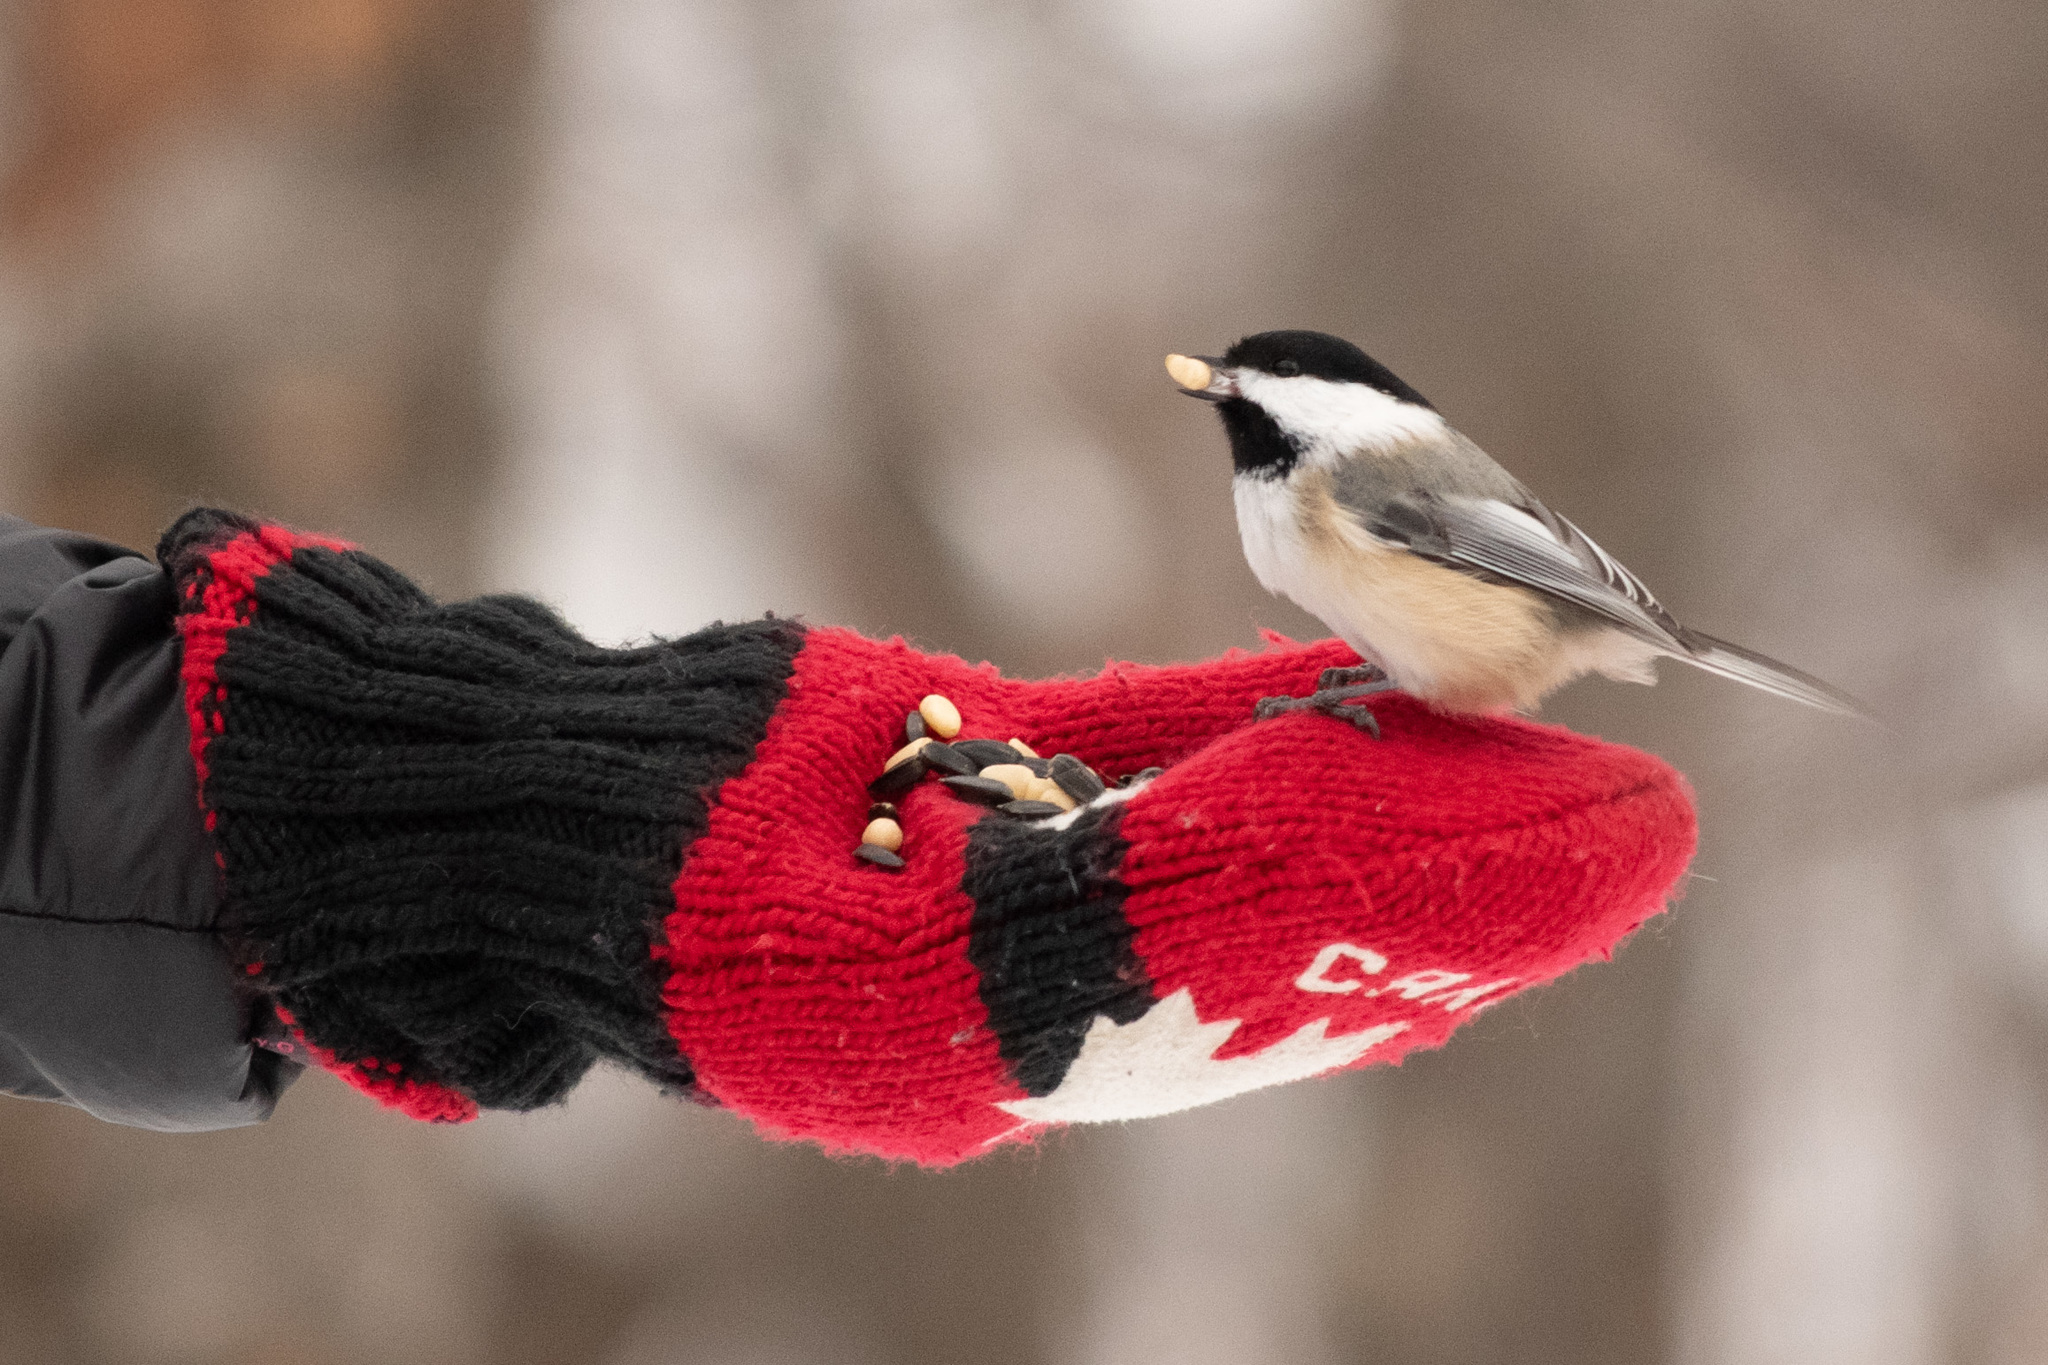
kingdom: Animalia
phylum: Chordata
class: Aves
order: Passeriformes
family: Paridae
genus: Poecile
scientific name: Poecile atricapillus
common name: Black-capped chickadee
